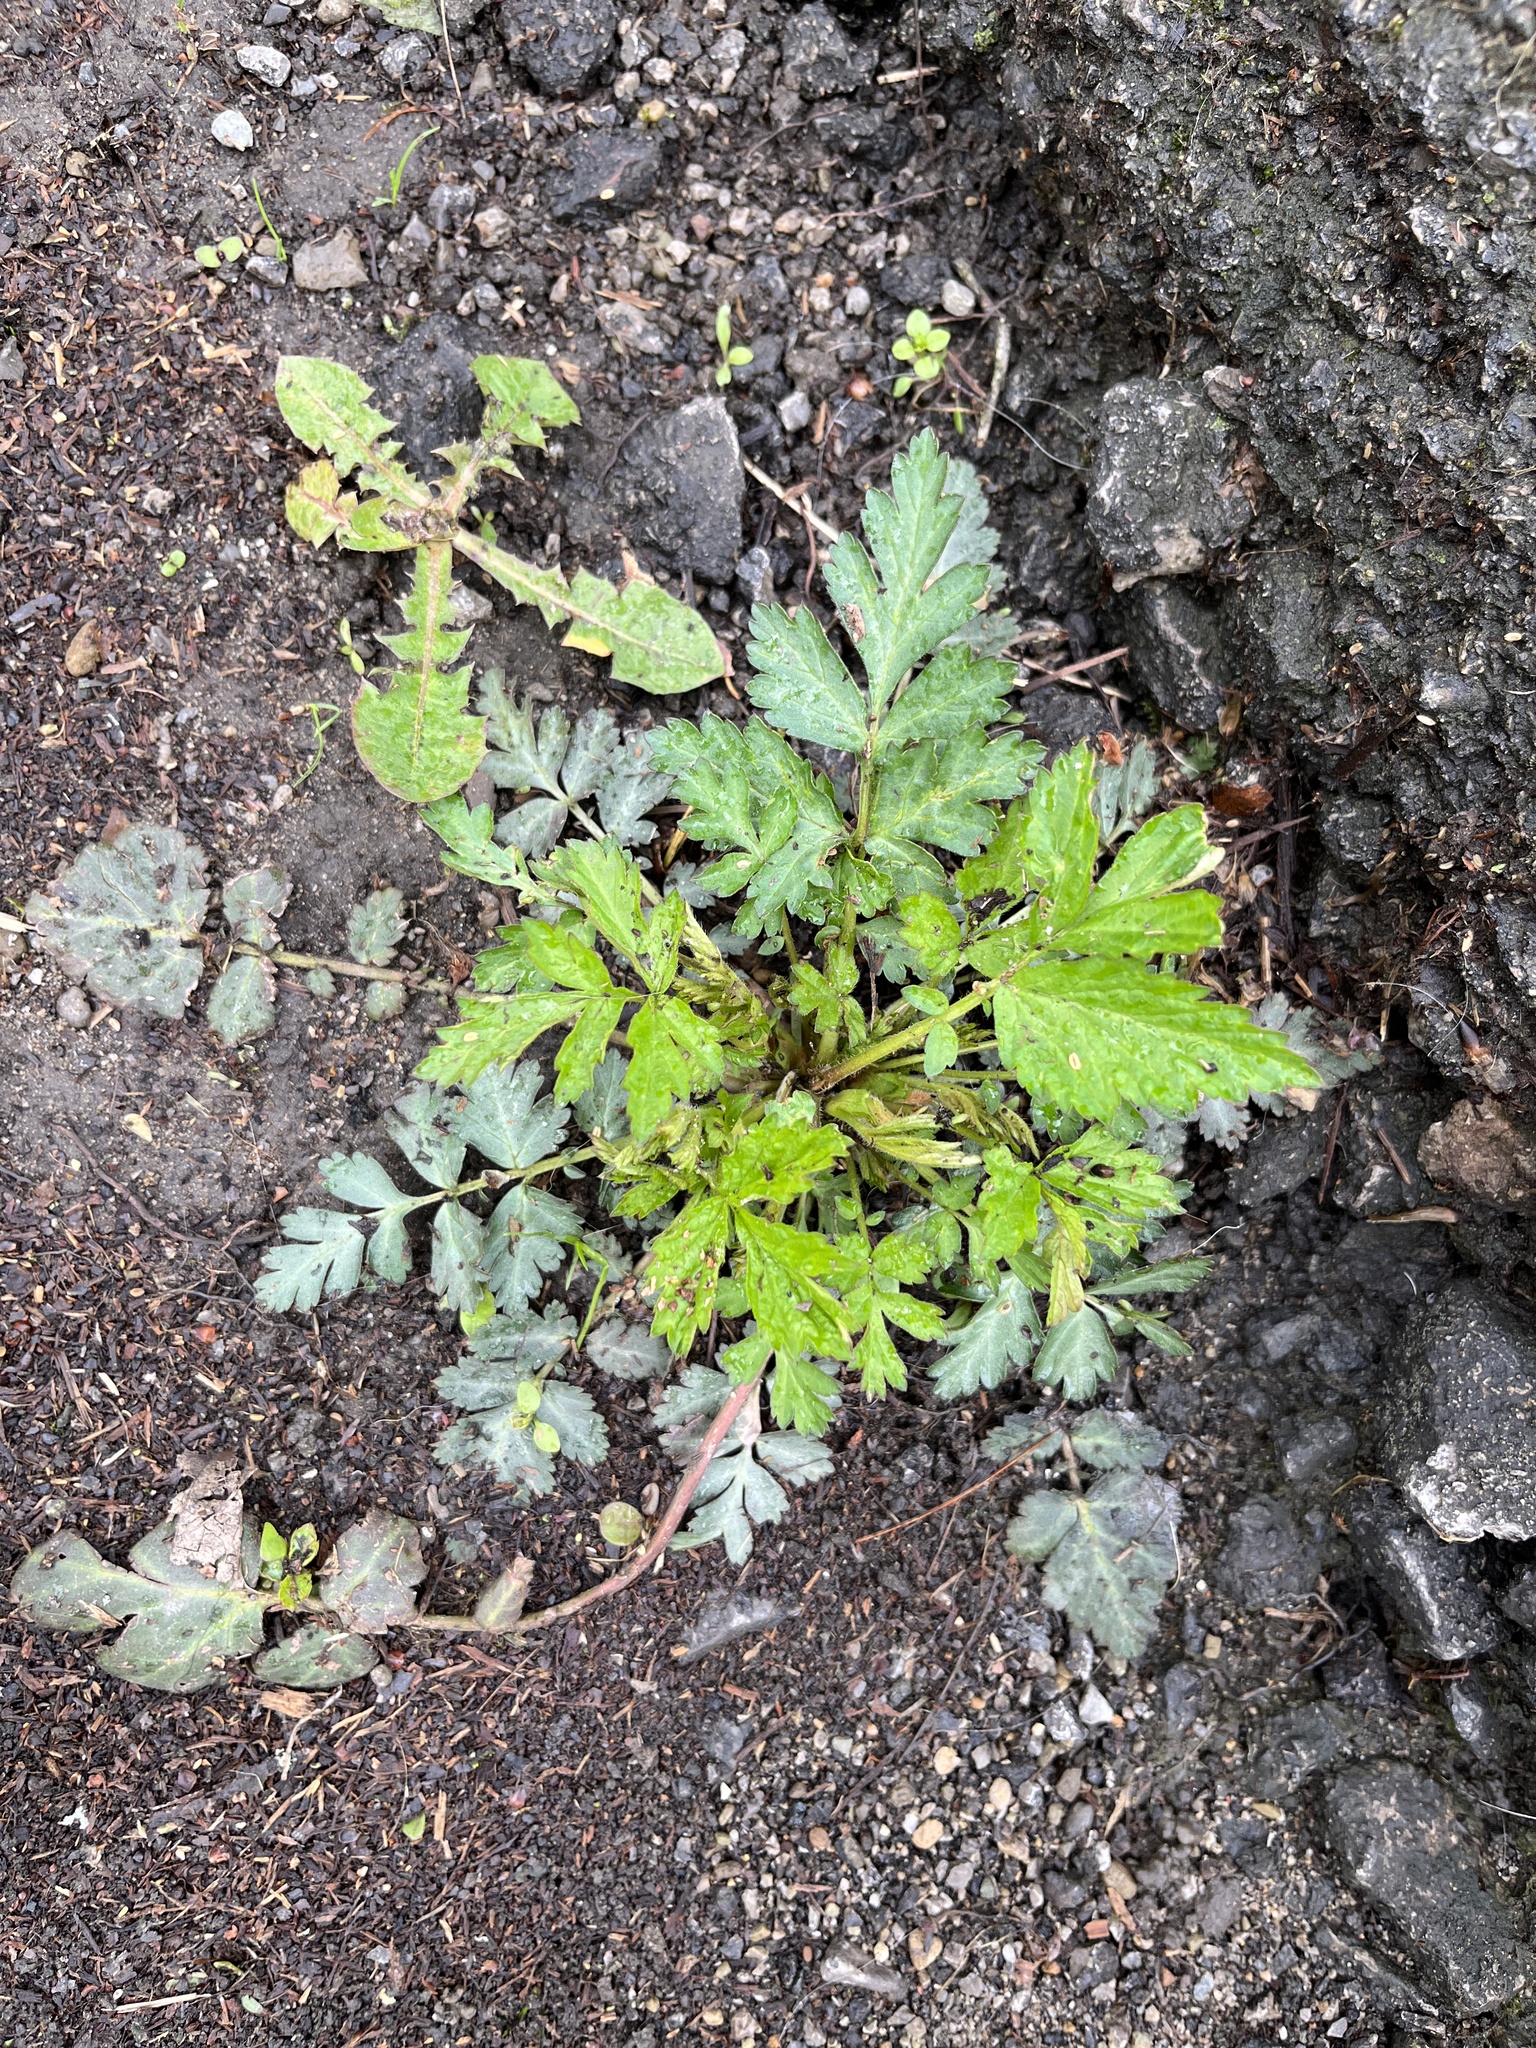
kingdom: Plantae
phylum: Tracheophyta
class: Magnoliopsida
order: Rosales
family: Rosaceae
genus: Geum
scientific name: Geum canadense
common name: White avens
